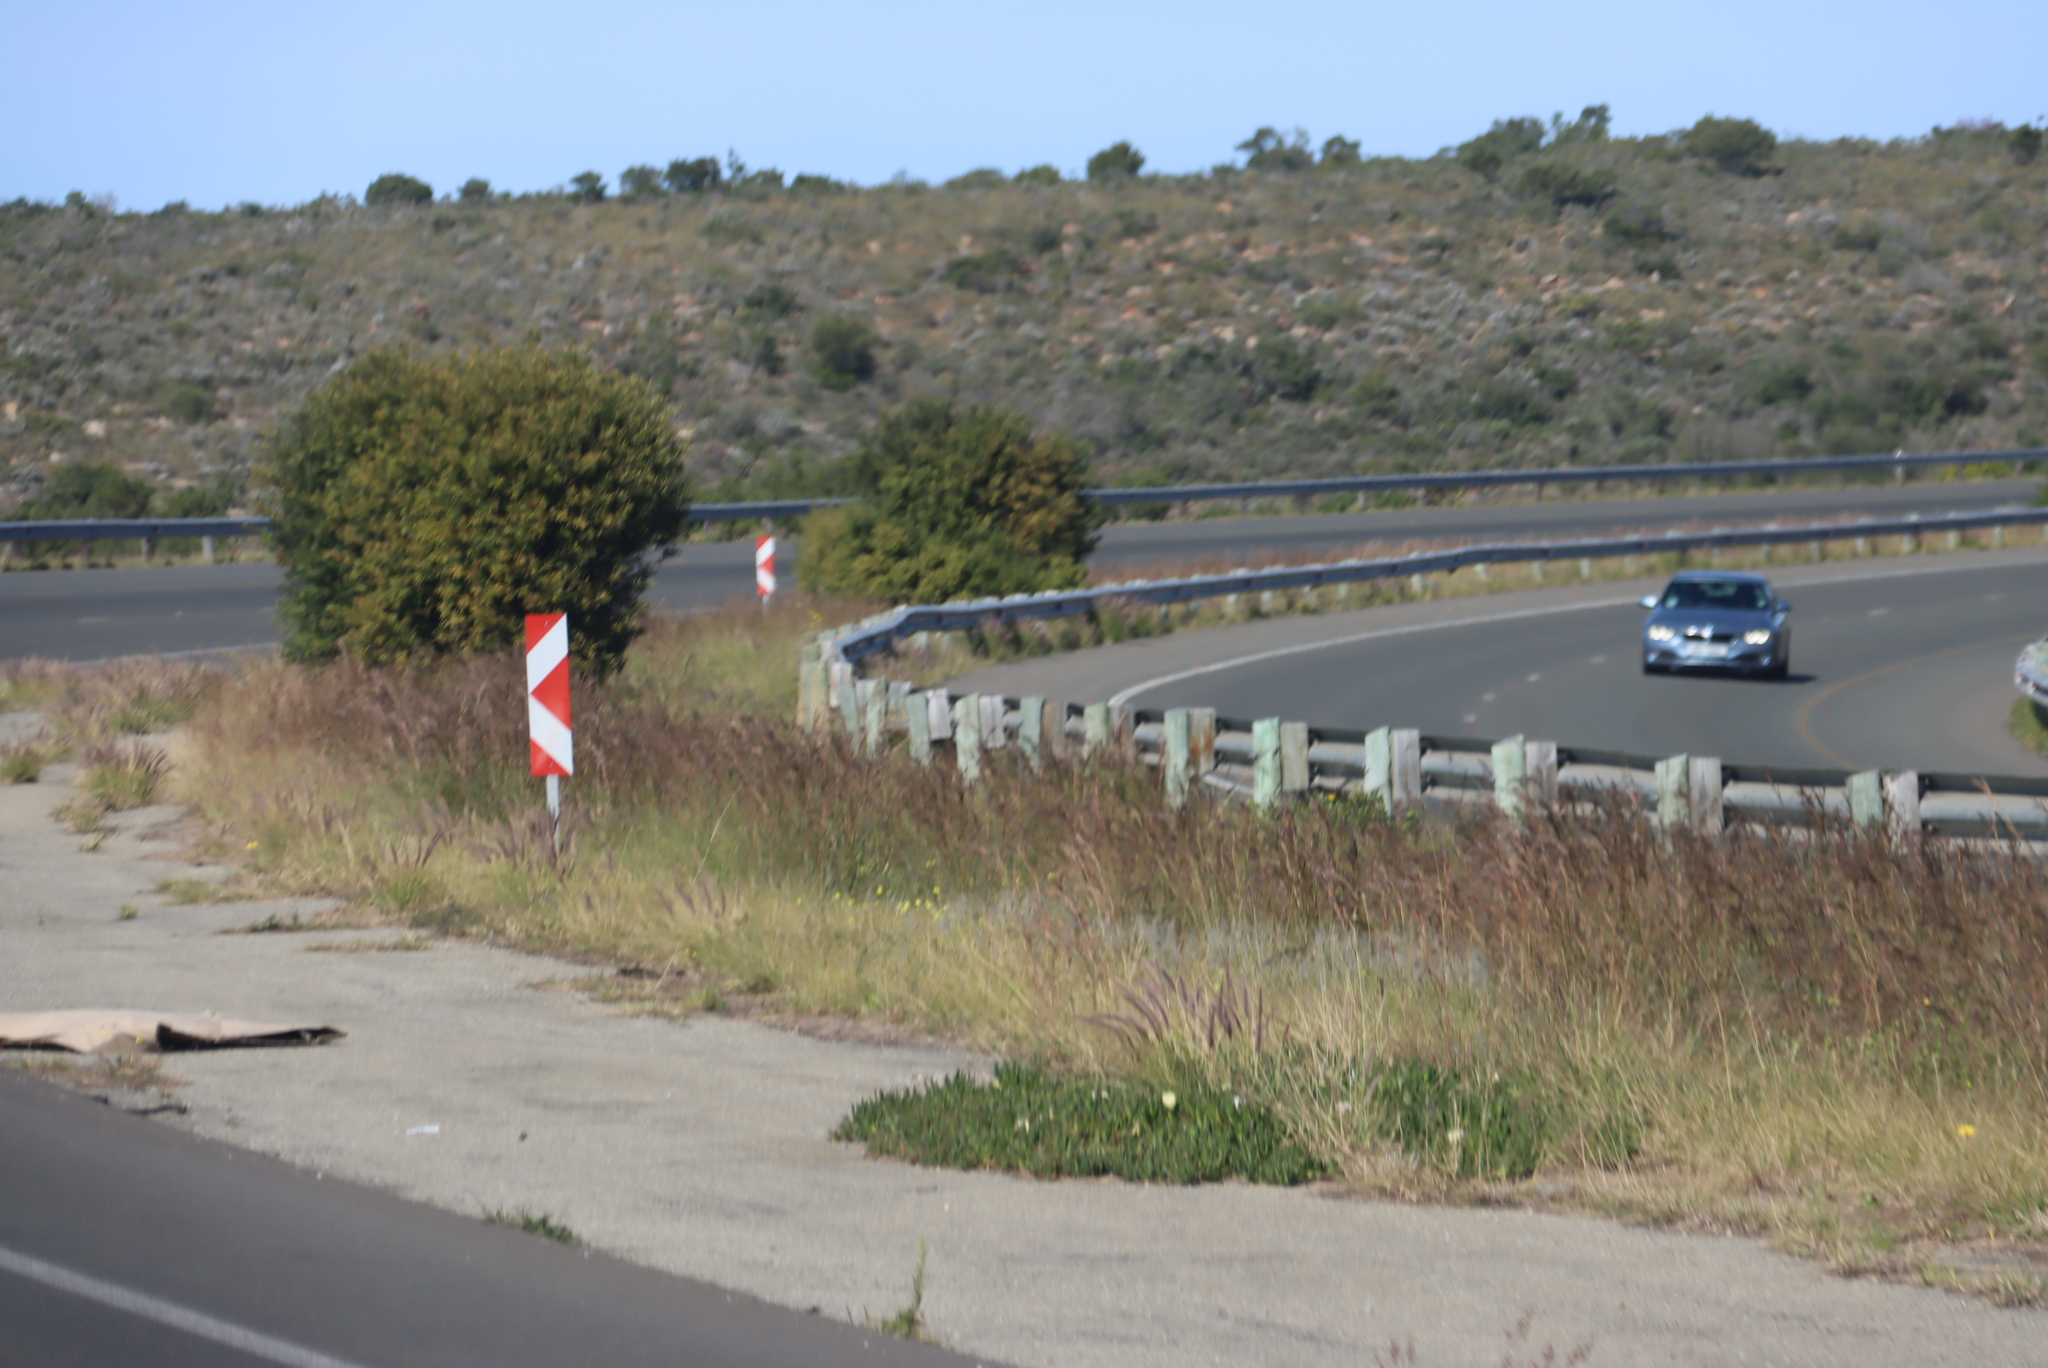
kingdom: Plantae
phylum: Tracheophyta
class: Liliopsida
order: Poales
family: Poaceae
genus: Cenchrus
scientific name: Cenchrus setaceus
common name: Crimson fountaingrass
